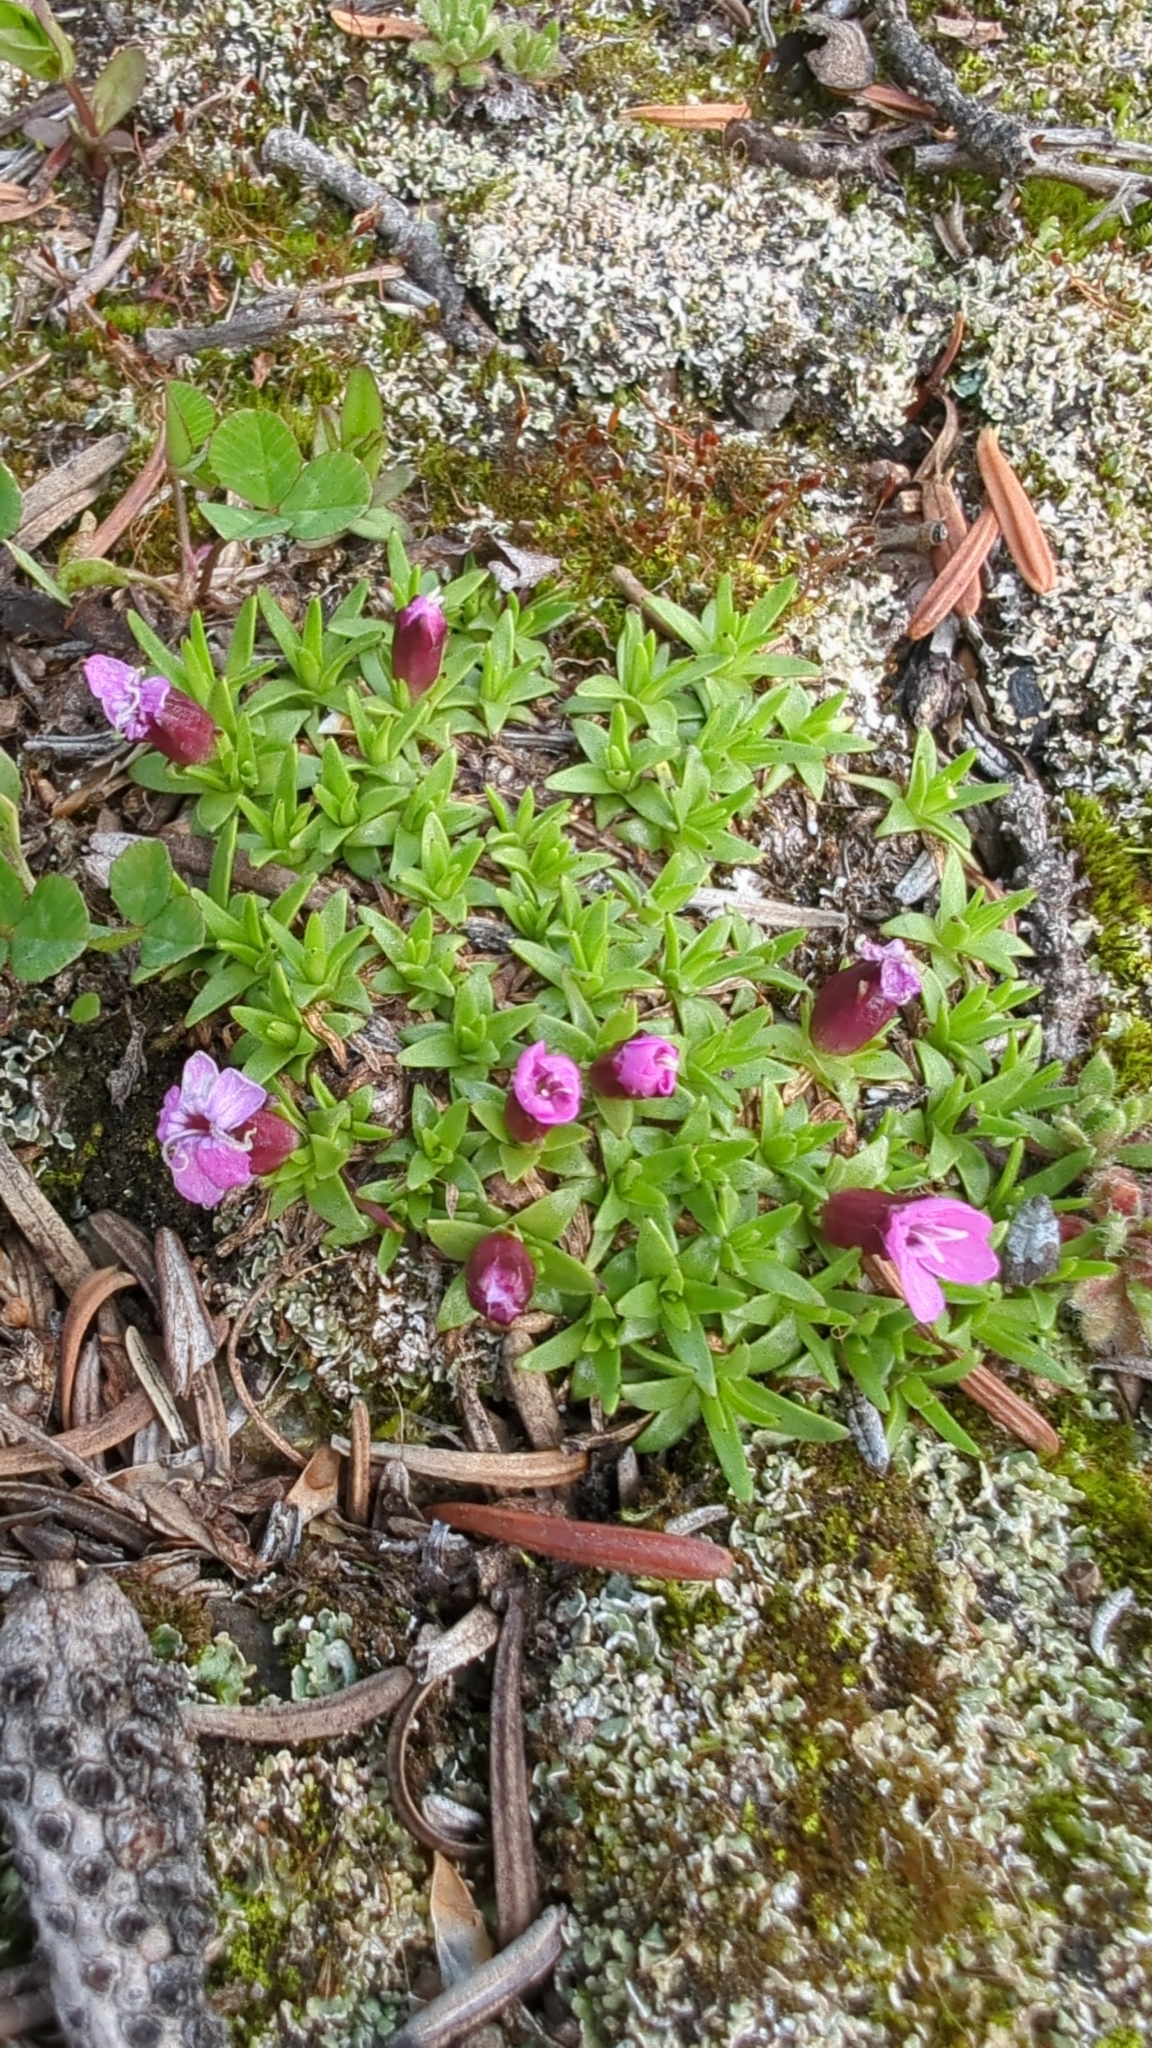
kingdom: Plantae
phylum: Tracheophyta
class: Magnoliopsida
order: Caryophyllales
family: Caryophyllaceae
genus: Silene
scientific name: Silene acaulis
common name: Moss campion
